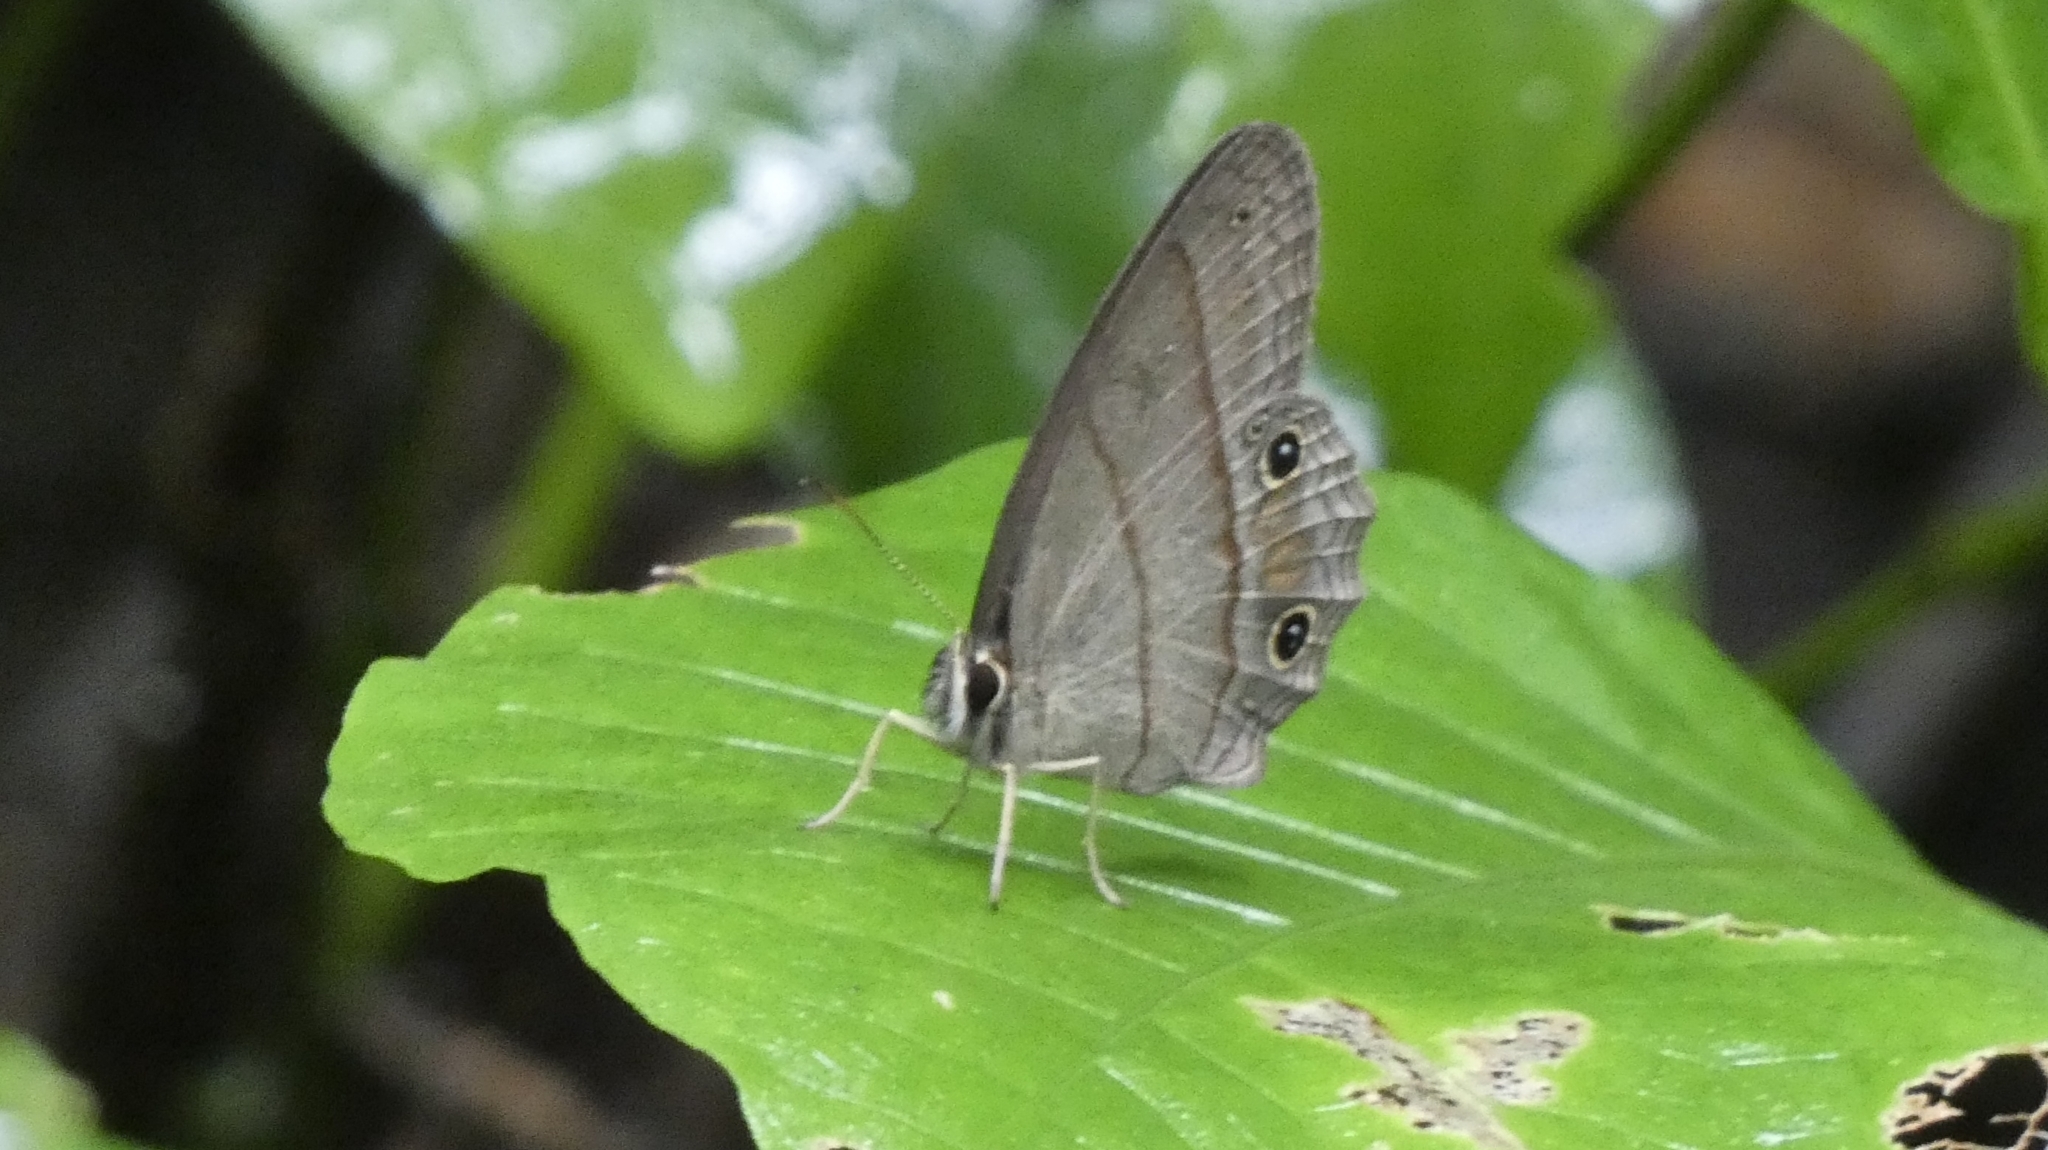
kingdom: Animalia
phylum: Arthropoda
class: Insecta
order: Lepidoptera
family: Nymphalidae
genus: Euptychia
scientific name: Euptychia Cissia pompilia
